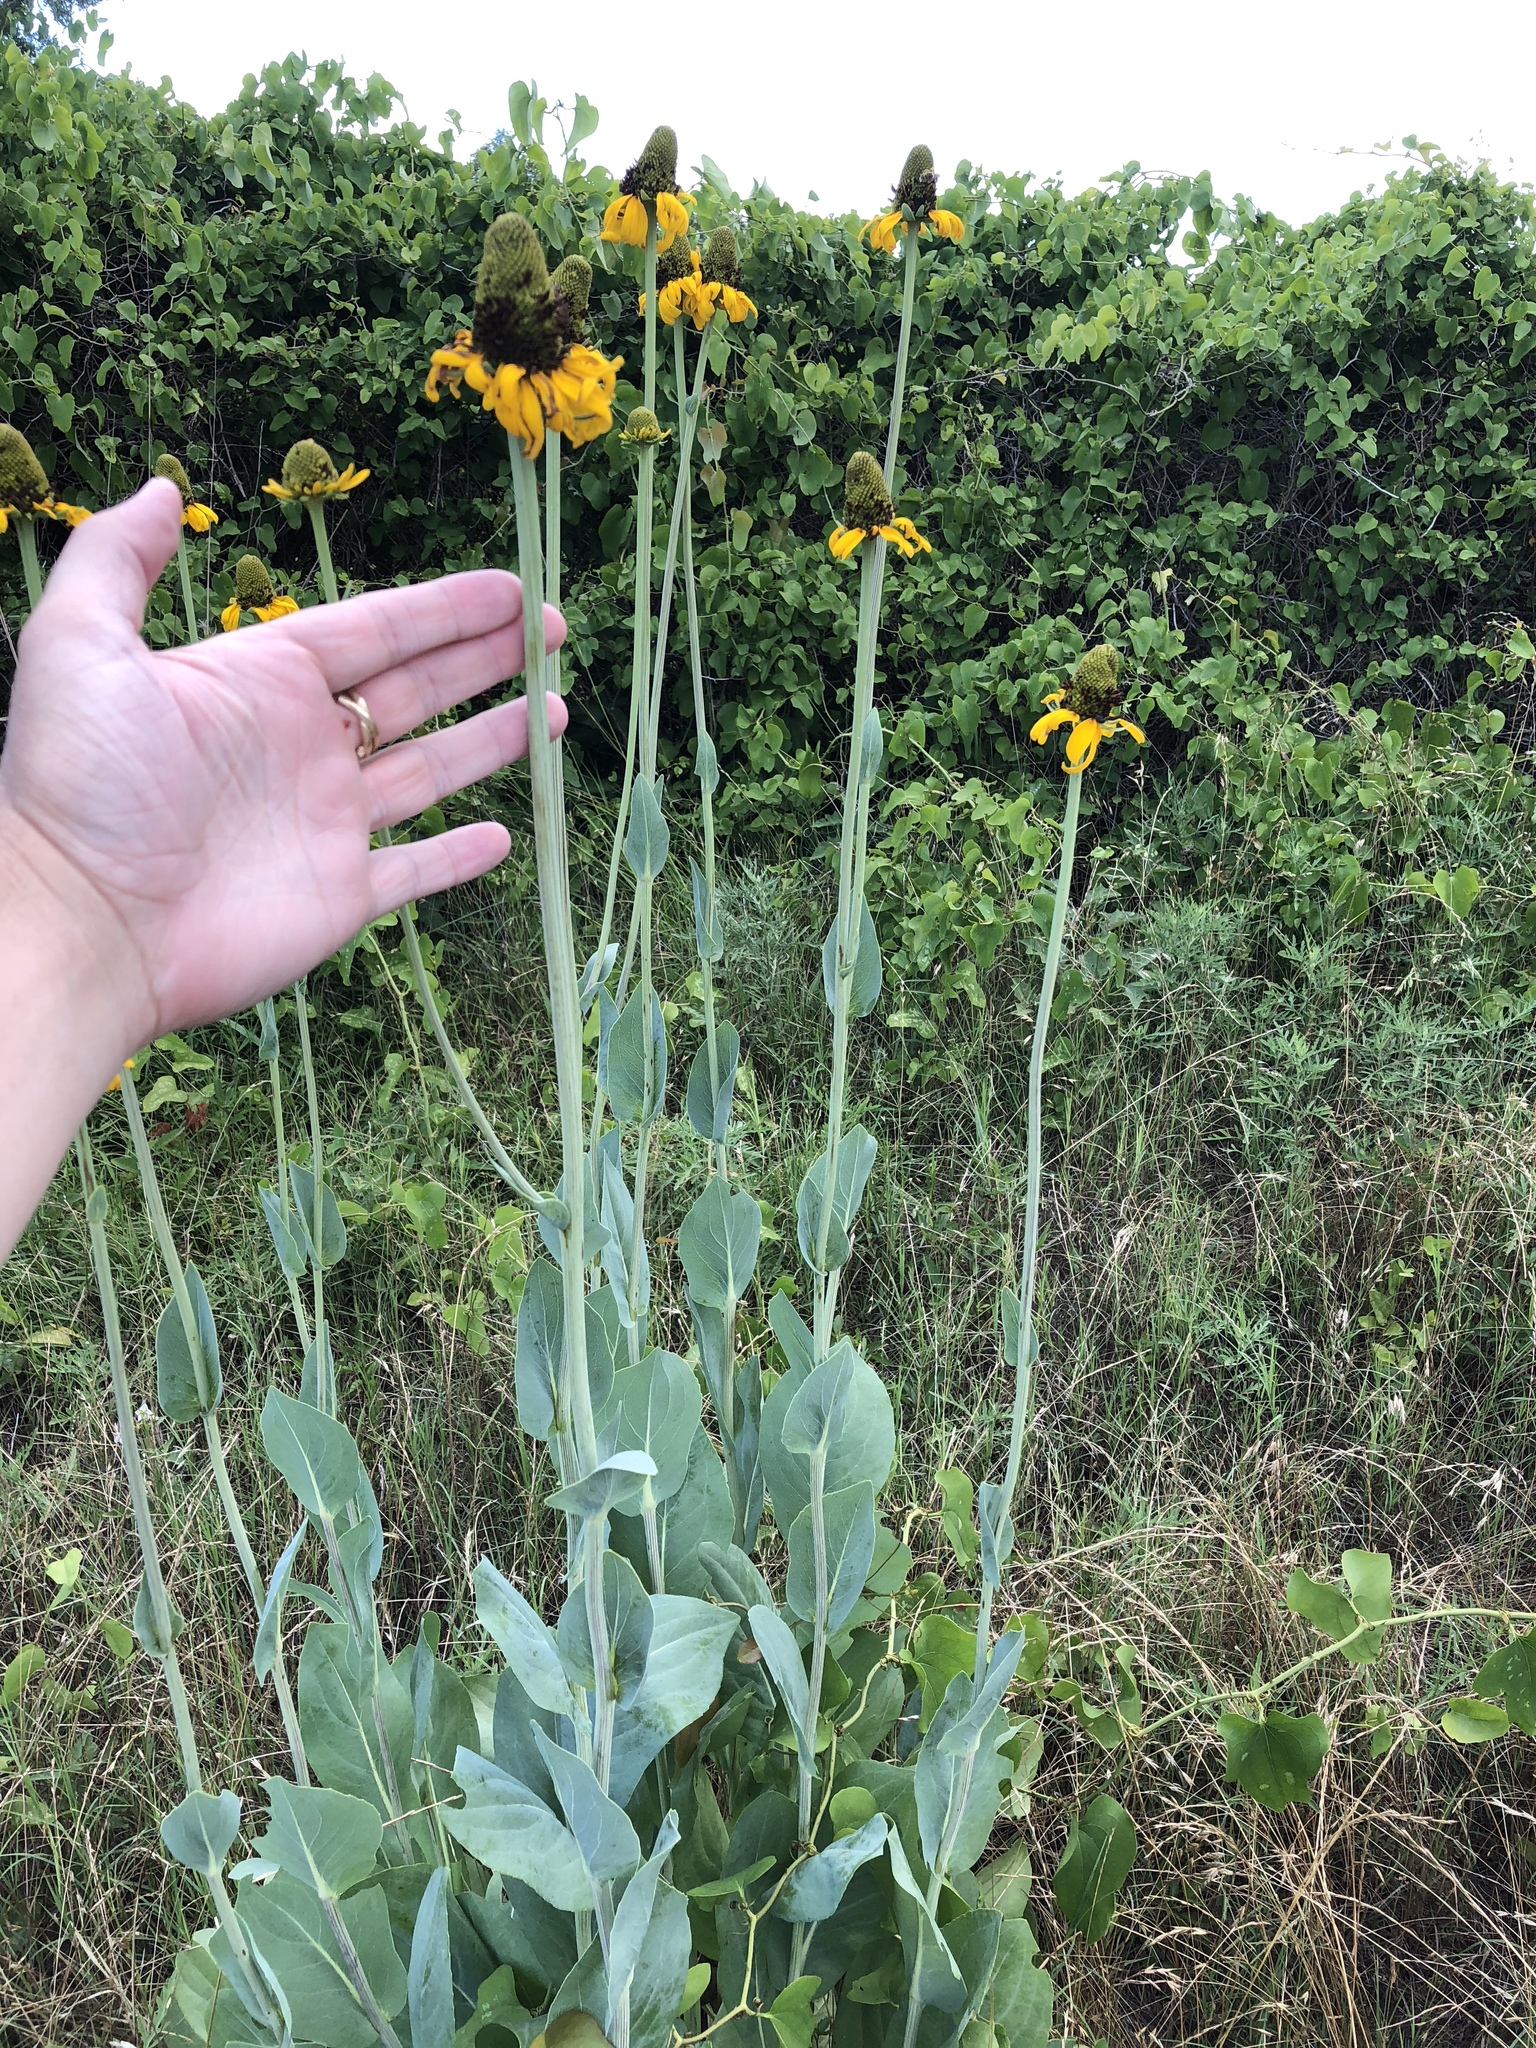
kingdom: Plantae
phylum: Tracheophyta
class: Magnoliopsida
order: Asterales
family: Asteraceae
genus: Rudbeckia
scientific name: Rudbeckia maxima
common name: Cabbage coneflower
